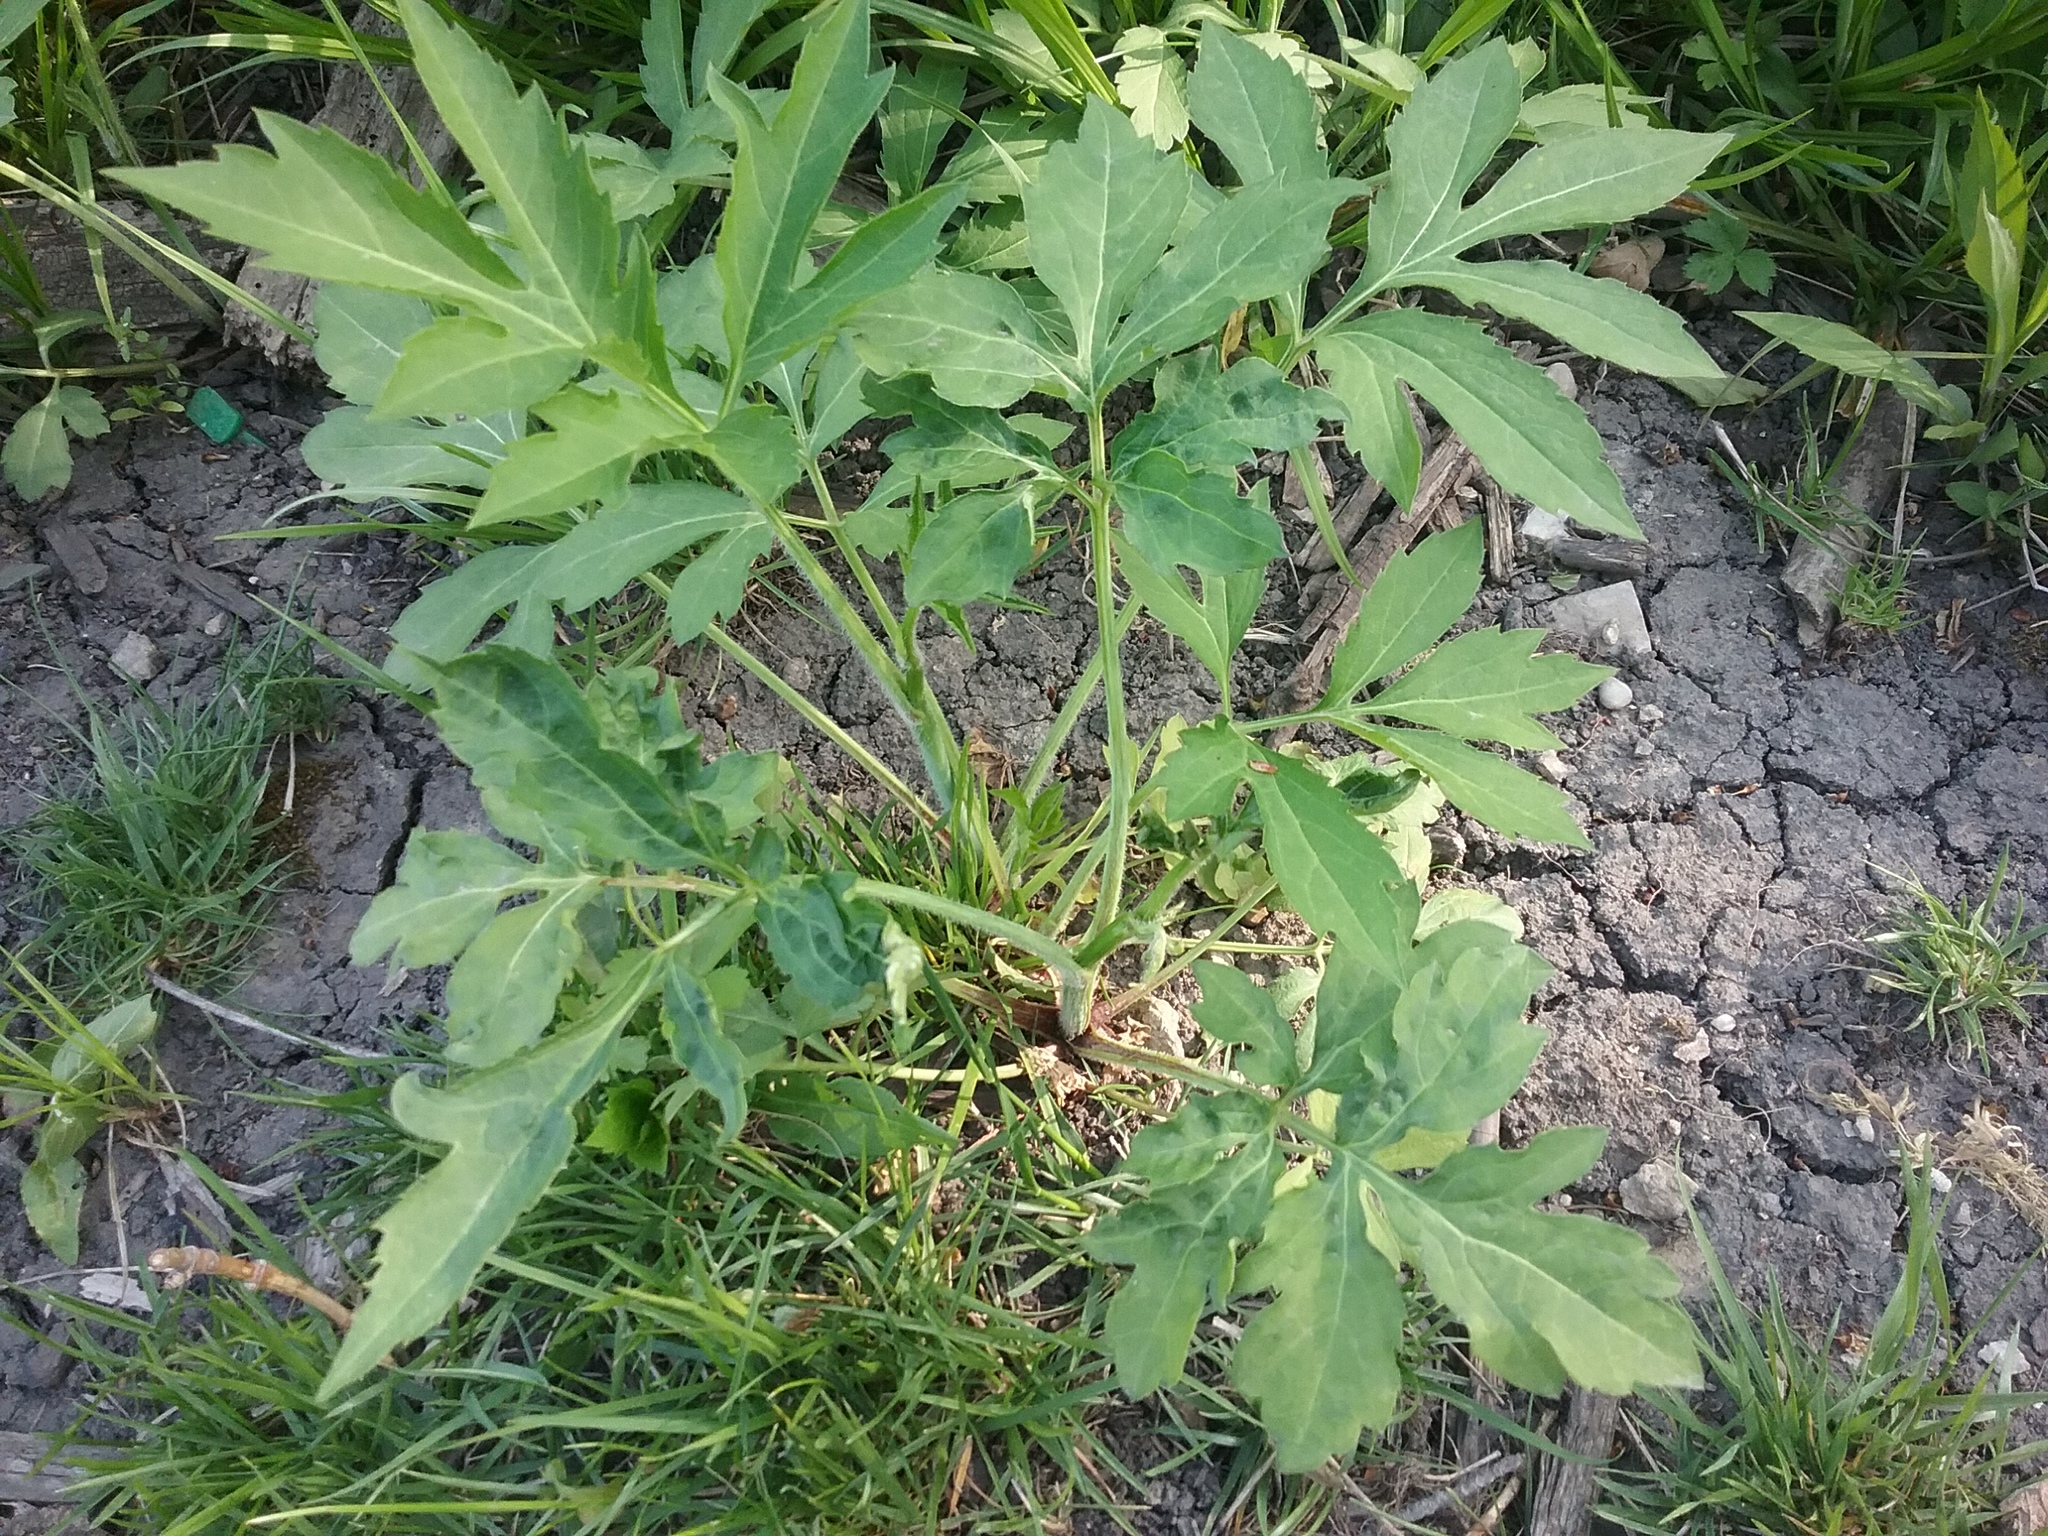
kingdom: Plantae
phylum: Tracheophyta
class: Magnoliopsida
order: Asterales
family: Asteraceae
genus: Rudbeckia
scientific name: Rudbeckia laciniata
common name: Coneflower
